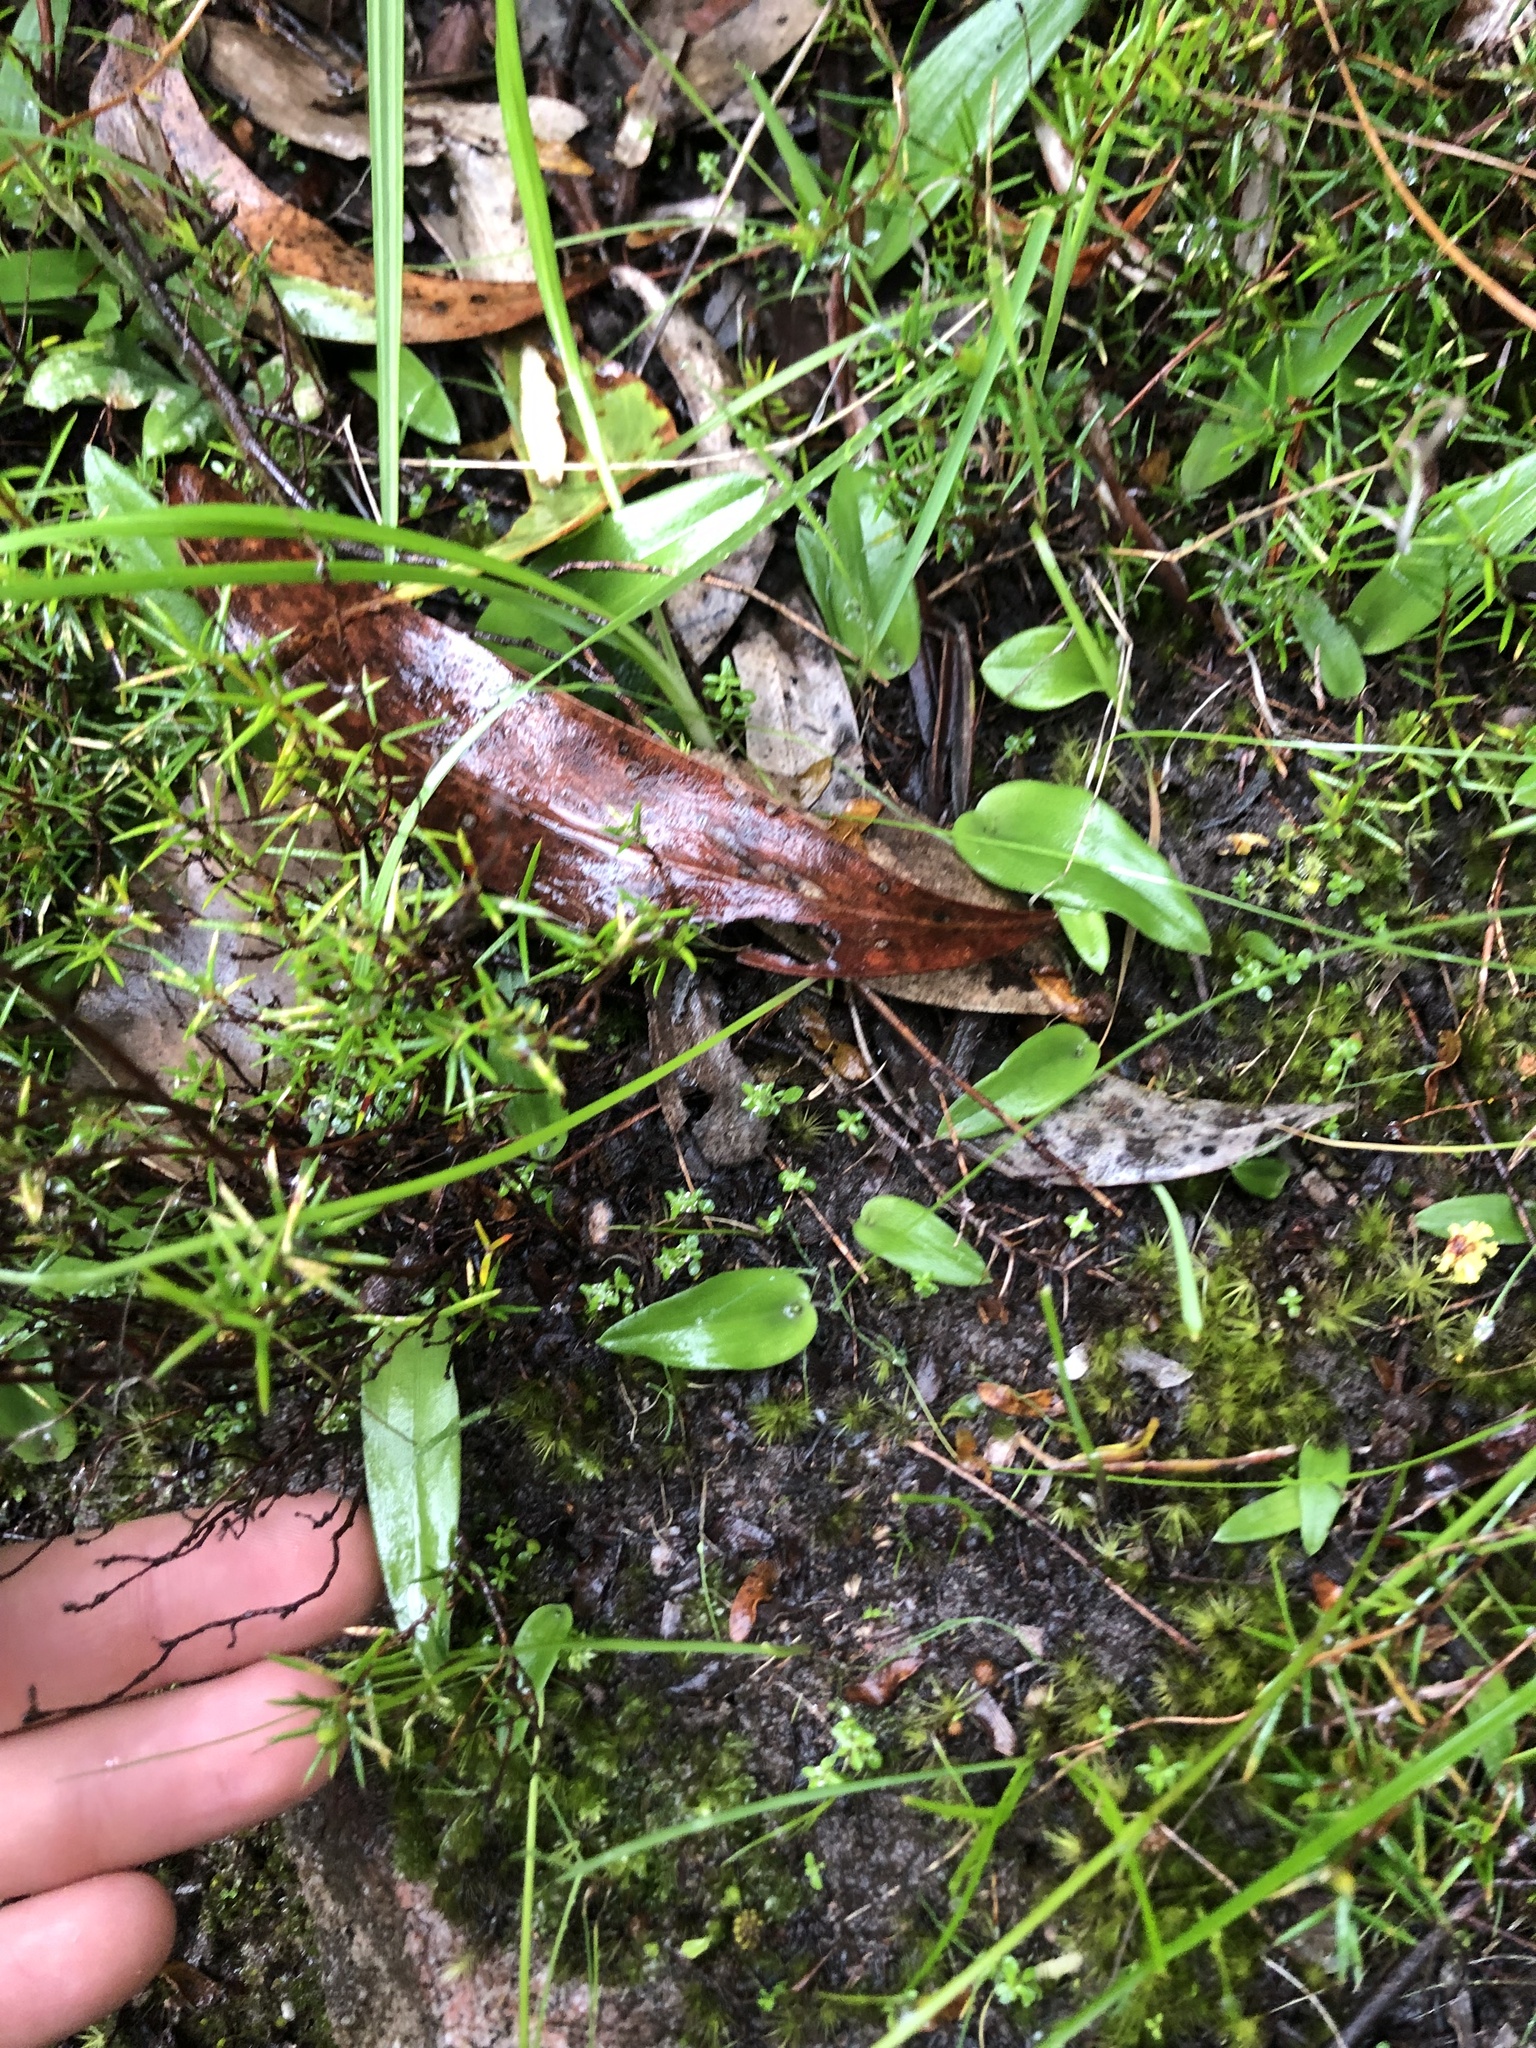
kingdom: Plantae
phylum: Tracheophyta
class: Liliopsida
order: Asparagales
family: Orchidaceae
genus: Leptoceras
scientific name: Leptoceras menziesii
